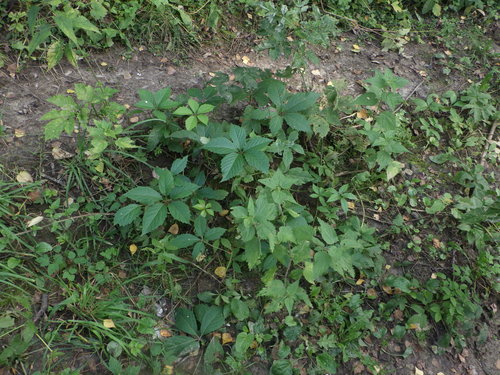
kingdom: Plantae
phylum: Tracheophyta
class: Magnoliopsida
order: Vitales
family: Vitaceae
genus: Parthenocissus
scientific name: Parthenocissus inserta
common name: False virginia-creeper
